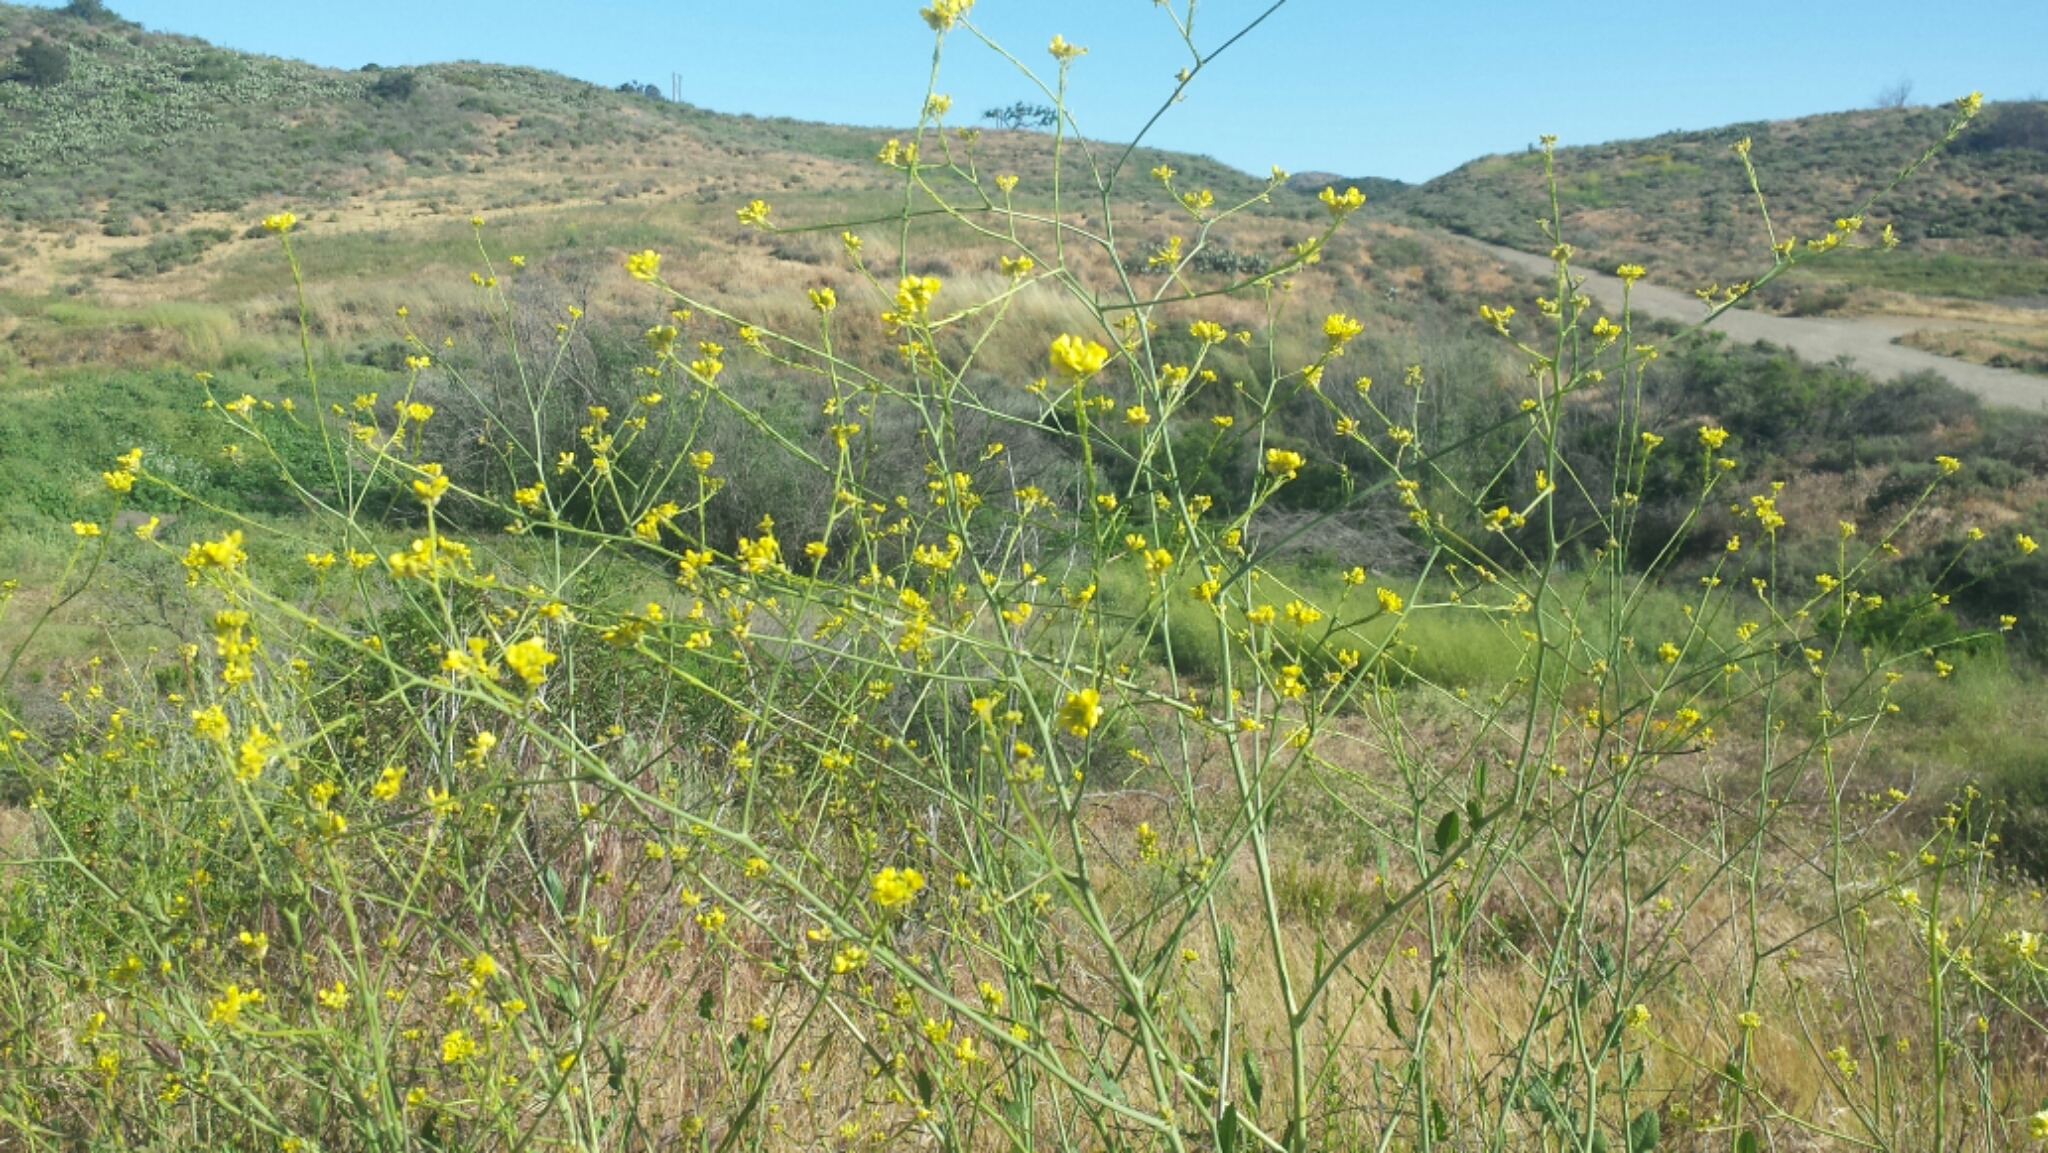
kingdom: Plantae
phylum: Tracheophyta
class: Magnoliopsida
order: Brassicales
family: Brassicaceae
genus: Brassica
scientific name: Brassica nigra
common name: Black mustard
